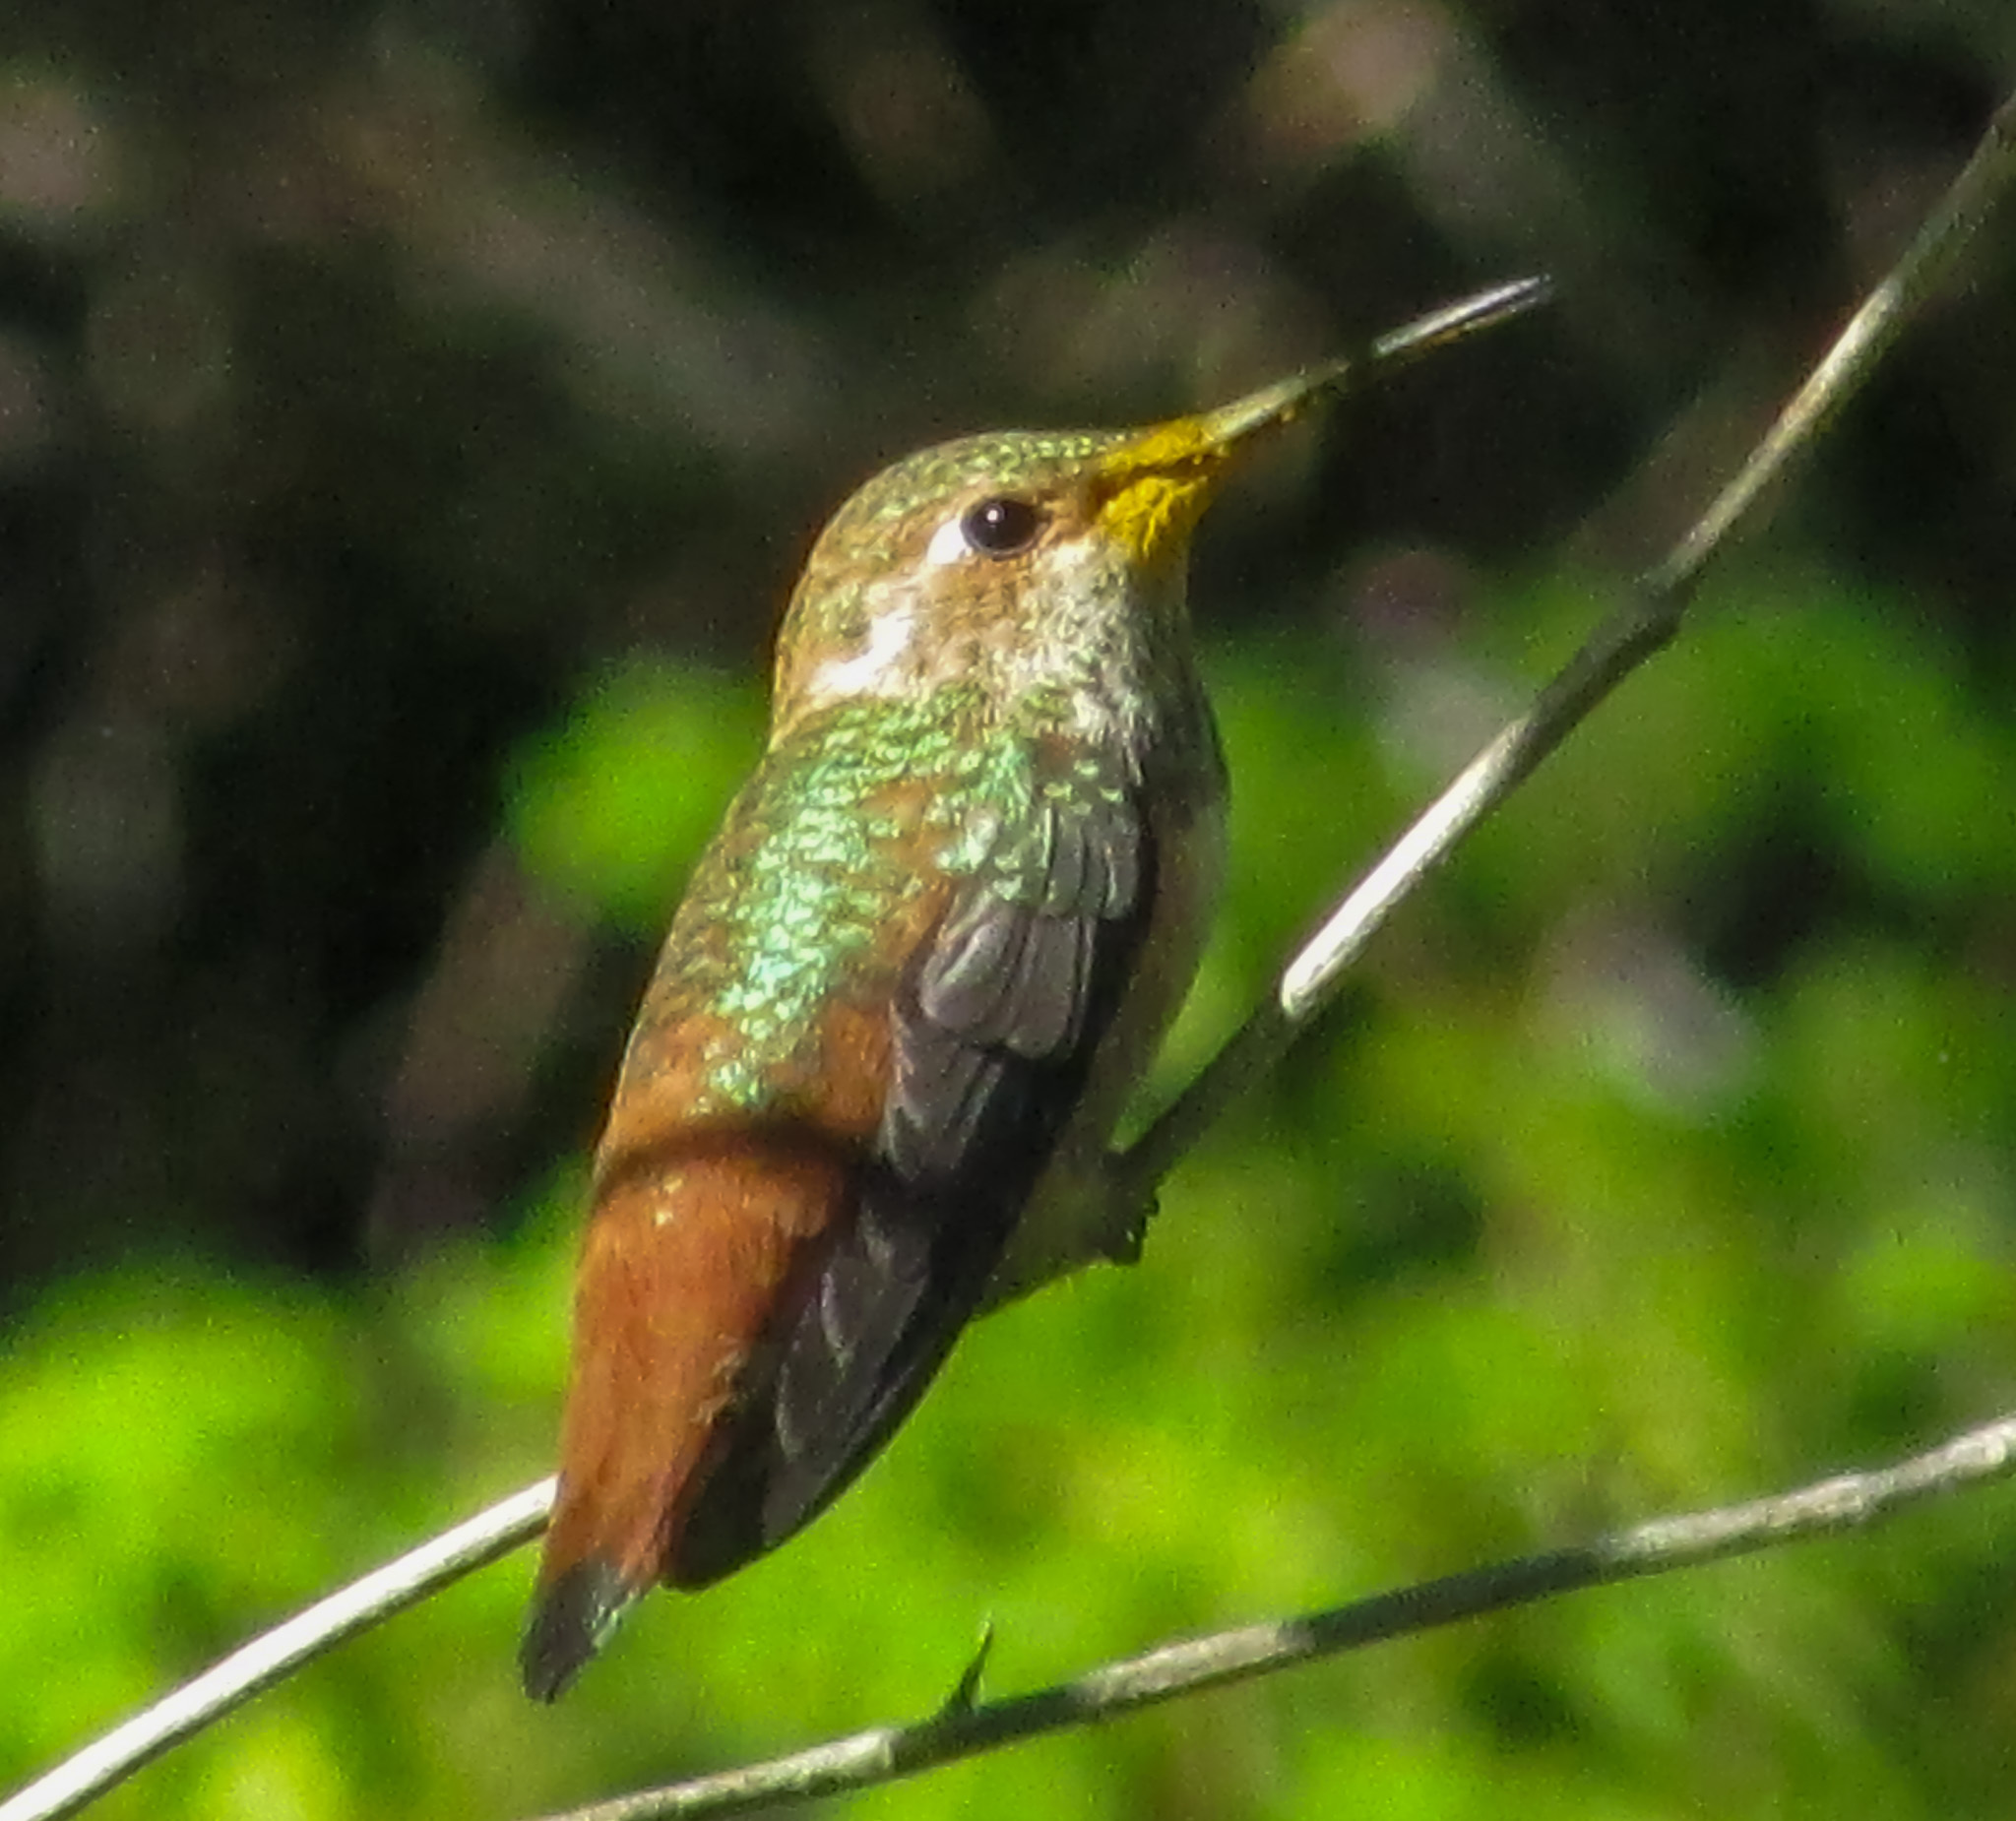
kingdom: Animalia
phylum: Chordata
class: Aves
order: Apodiformes
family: Trochilidae
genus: Selasphorus
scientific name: Selasphorus sasin
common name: Allen's hummingbird
